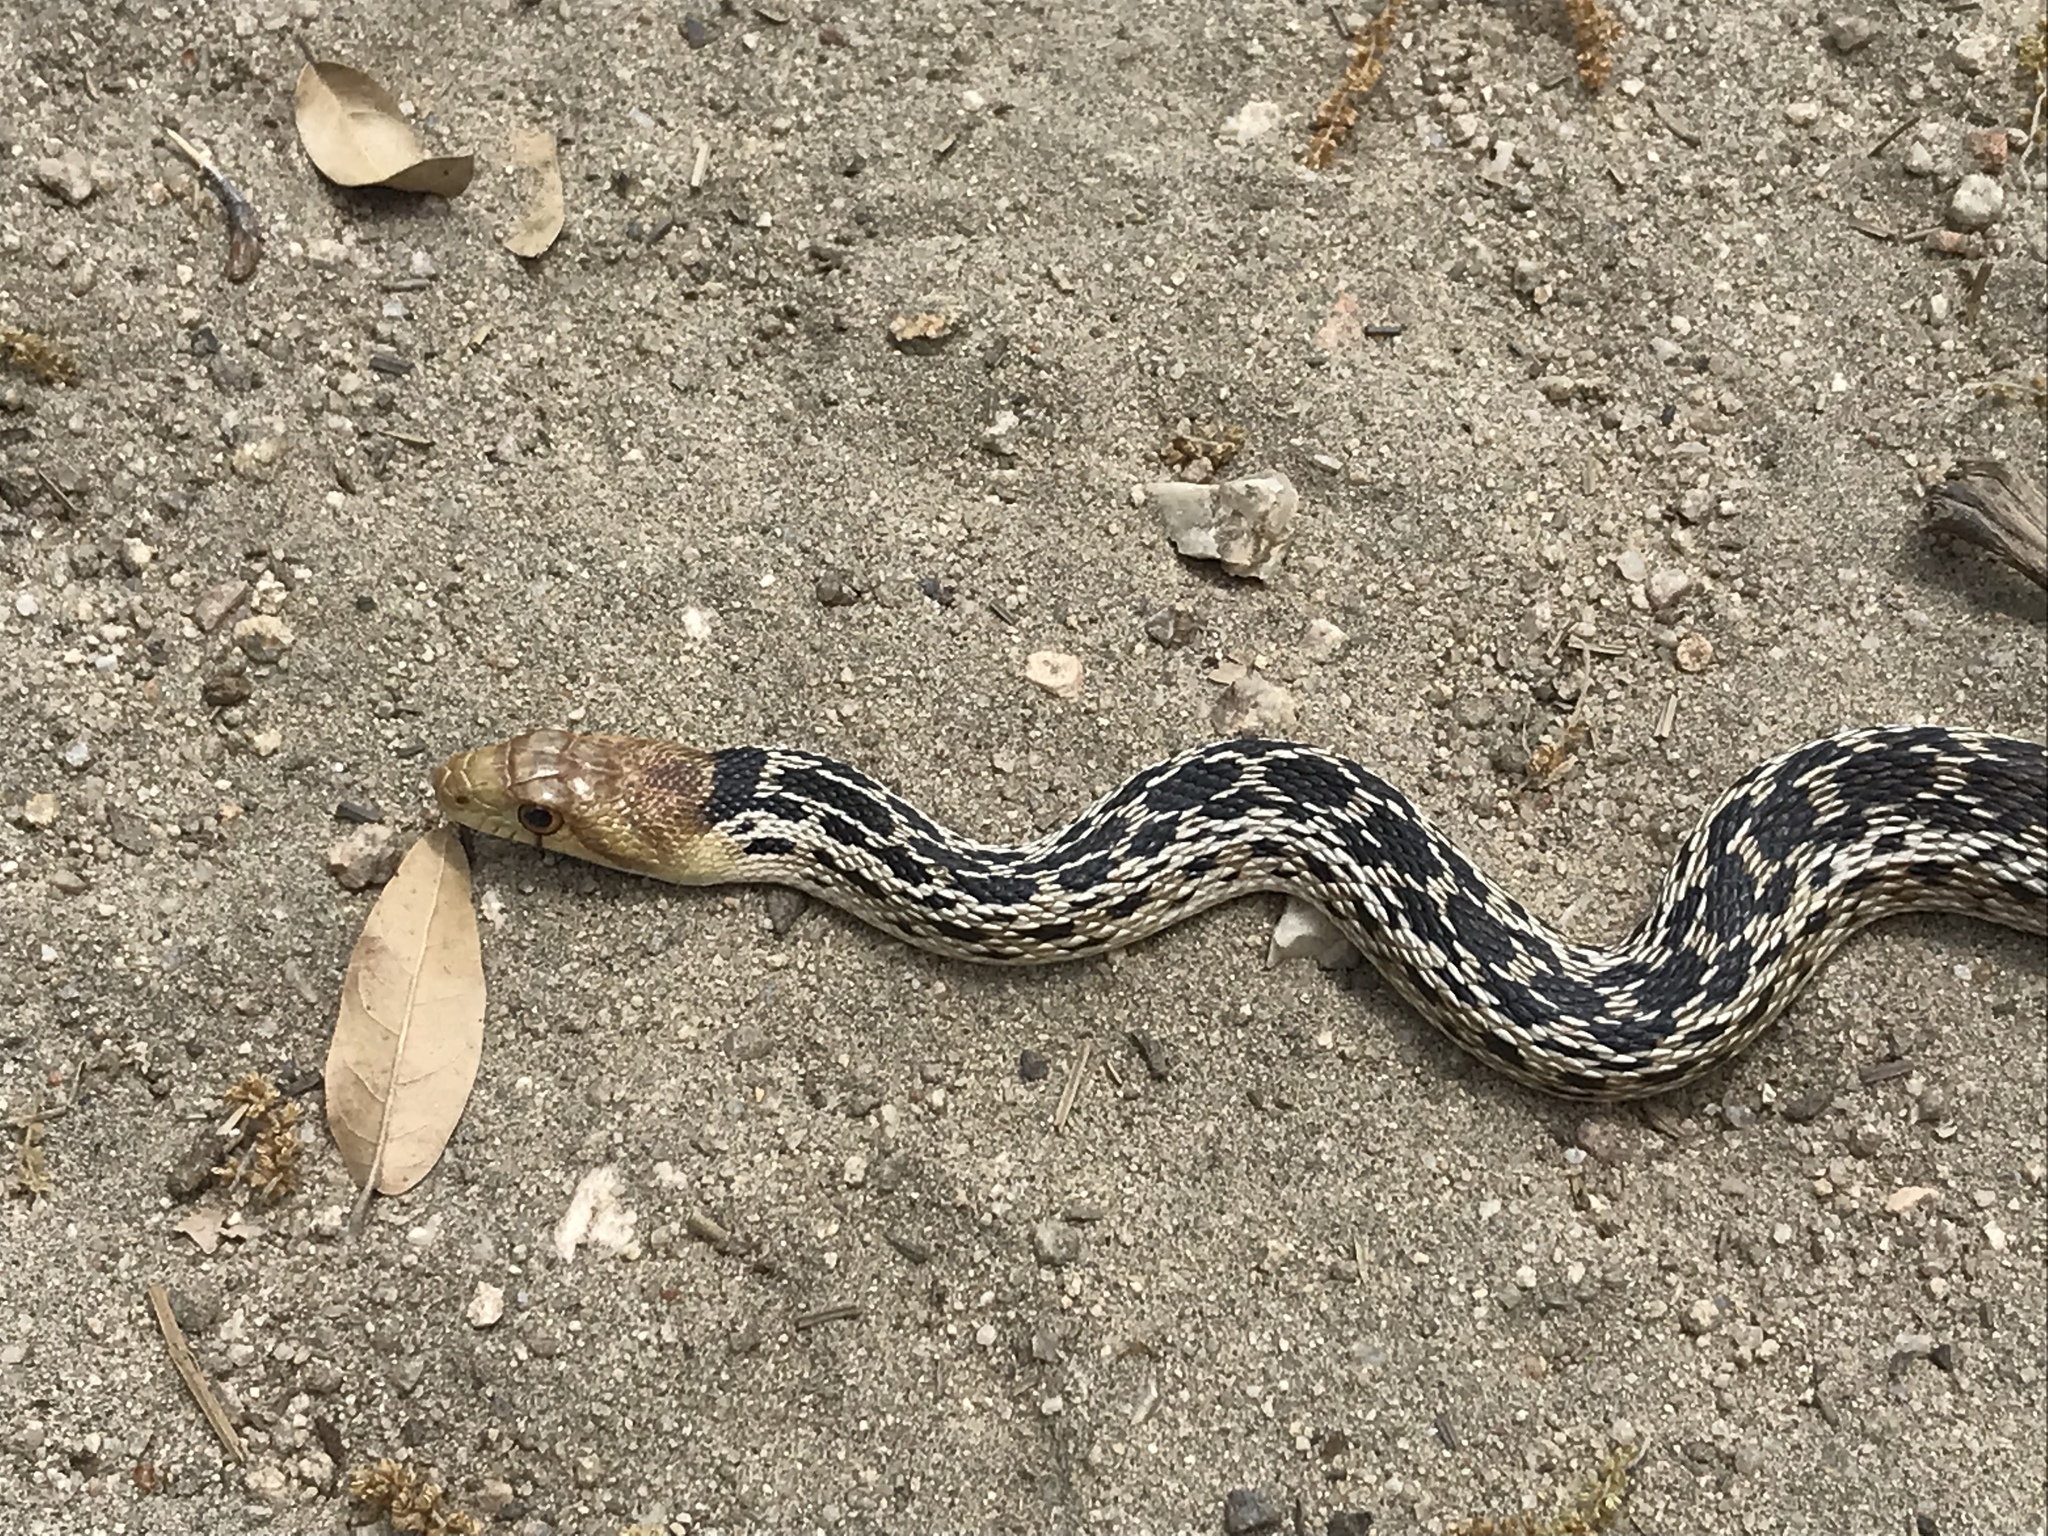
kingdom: Animalia
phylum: Chordata
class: Squamata
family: Colubridae
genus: Pituophis
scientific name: Pituophis catenifer
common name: Gopher snake
